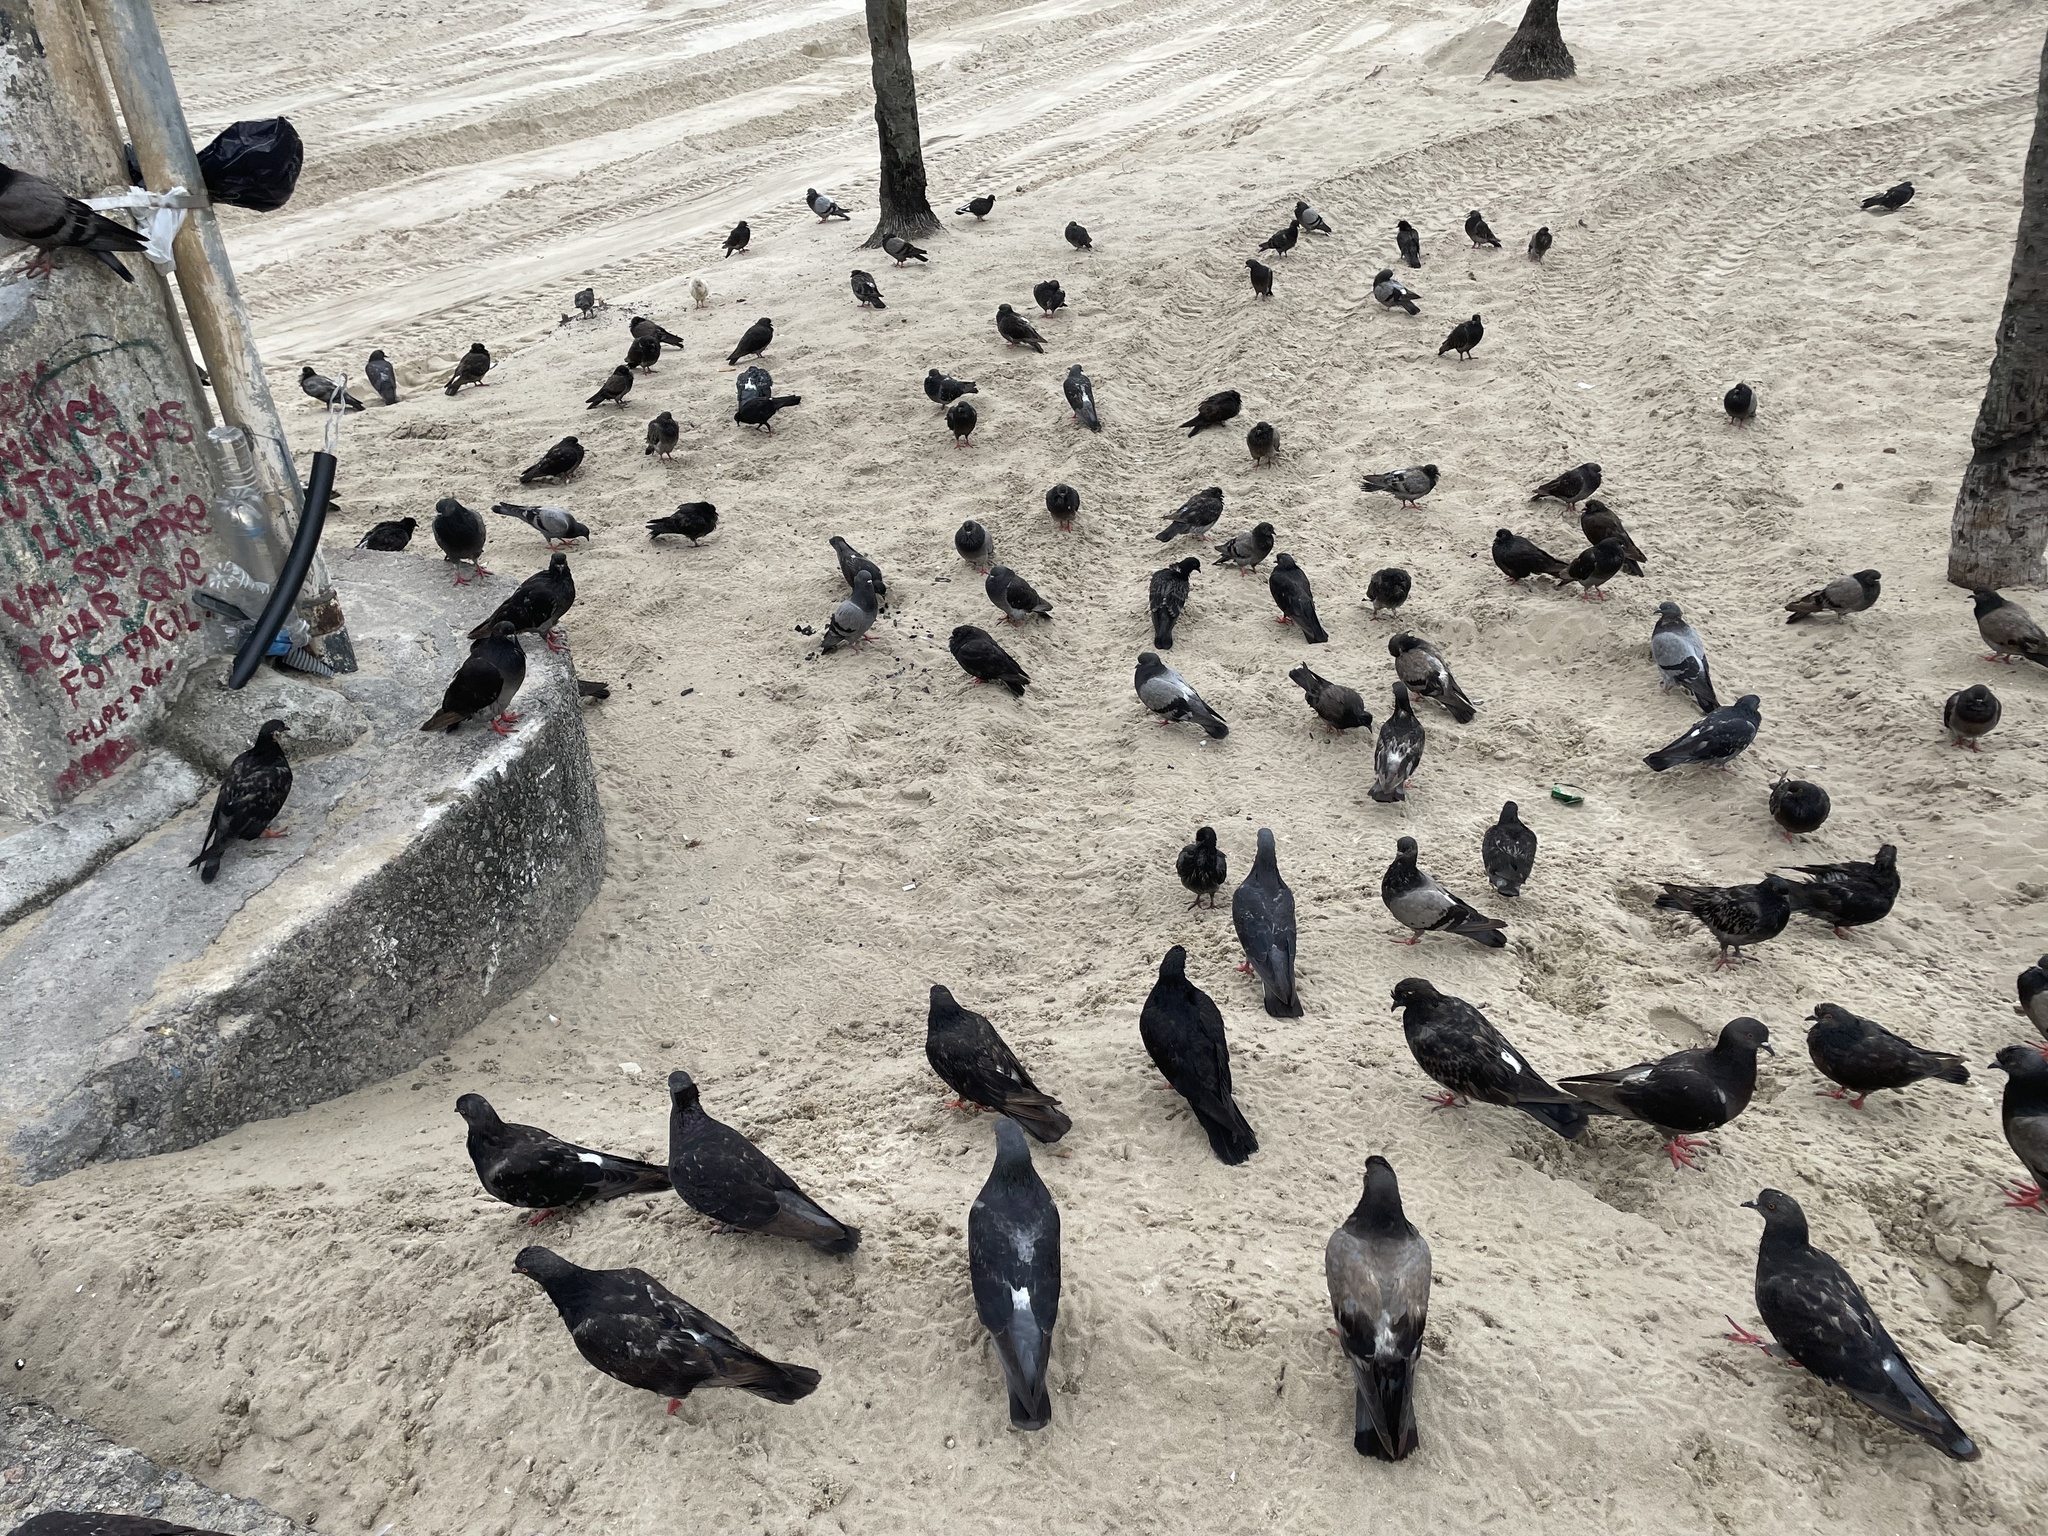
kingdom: Animalia
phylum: Chordata
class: Aves
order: Columbiformes
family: Columbidae
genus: Columba
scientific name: Columba livia
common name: Rock pigeon
